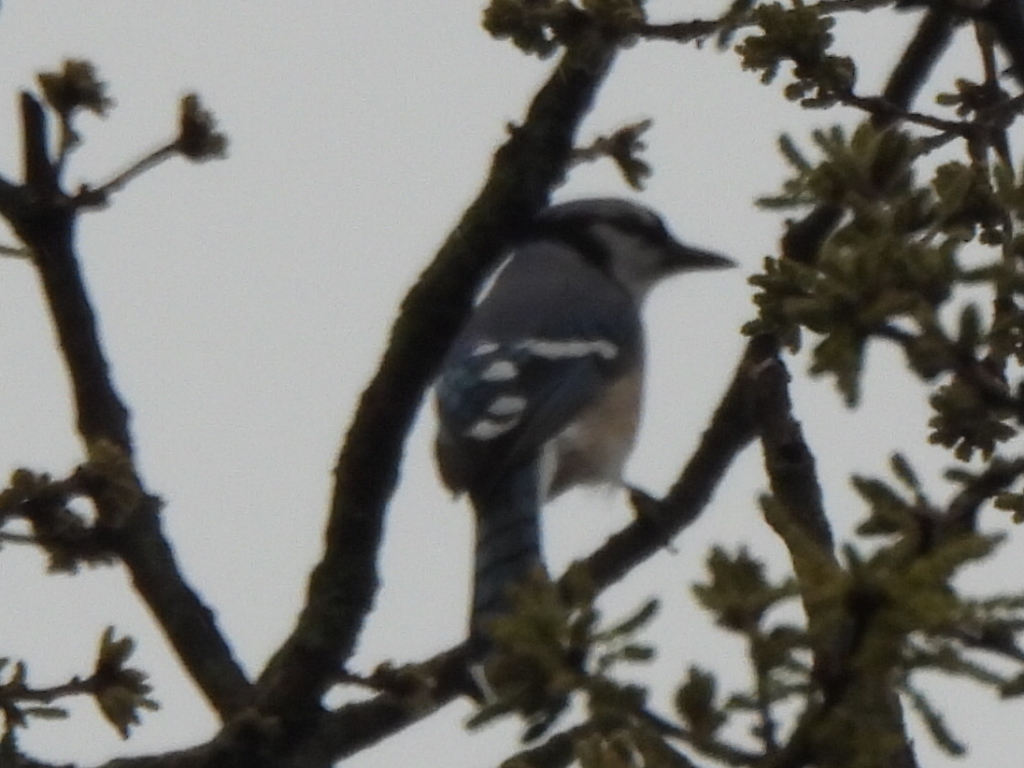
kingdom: Animalia
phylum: Chordata
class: Aves
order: Passeriformes
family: Corvidae
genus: Cyanocitta
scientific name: Cyanocitta cristata
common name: Blue jay
